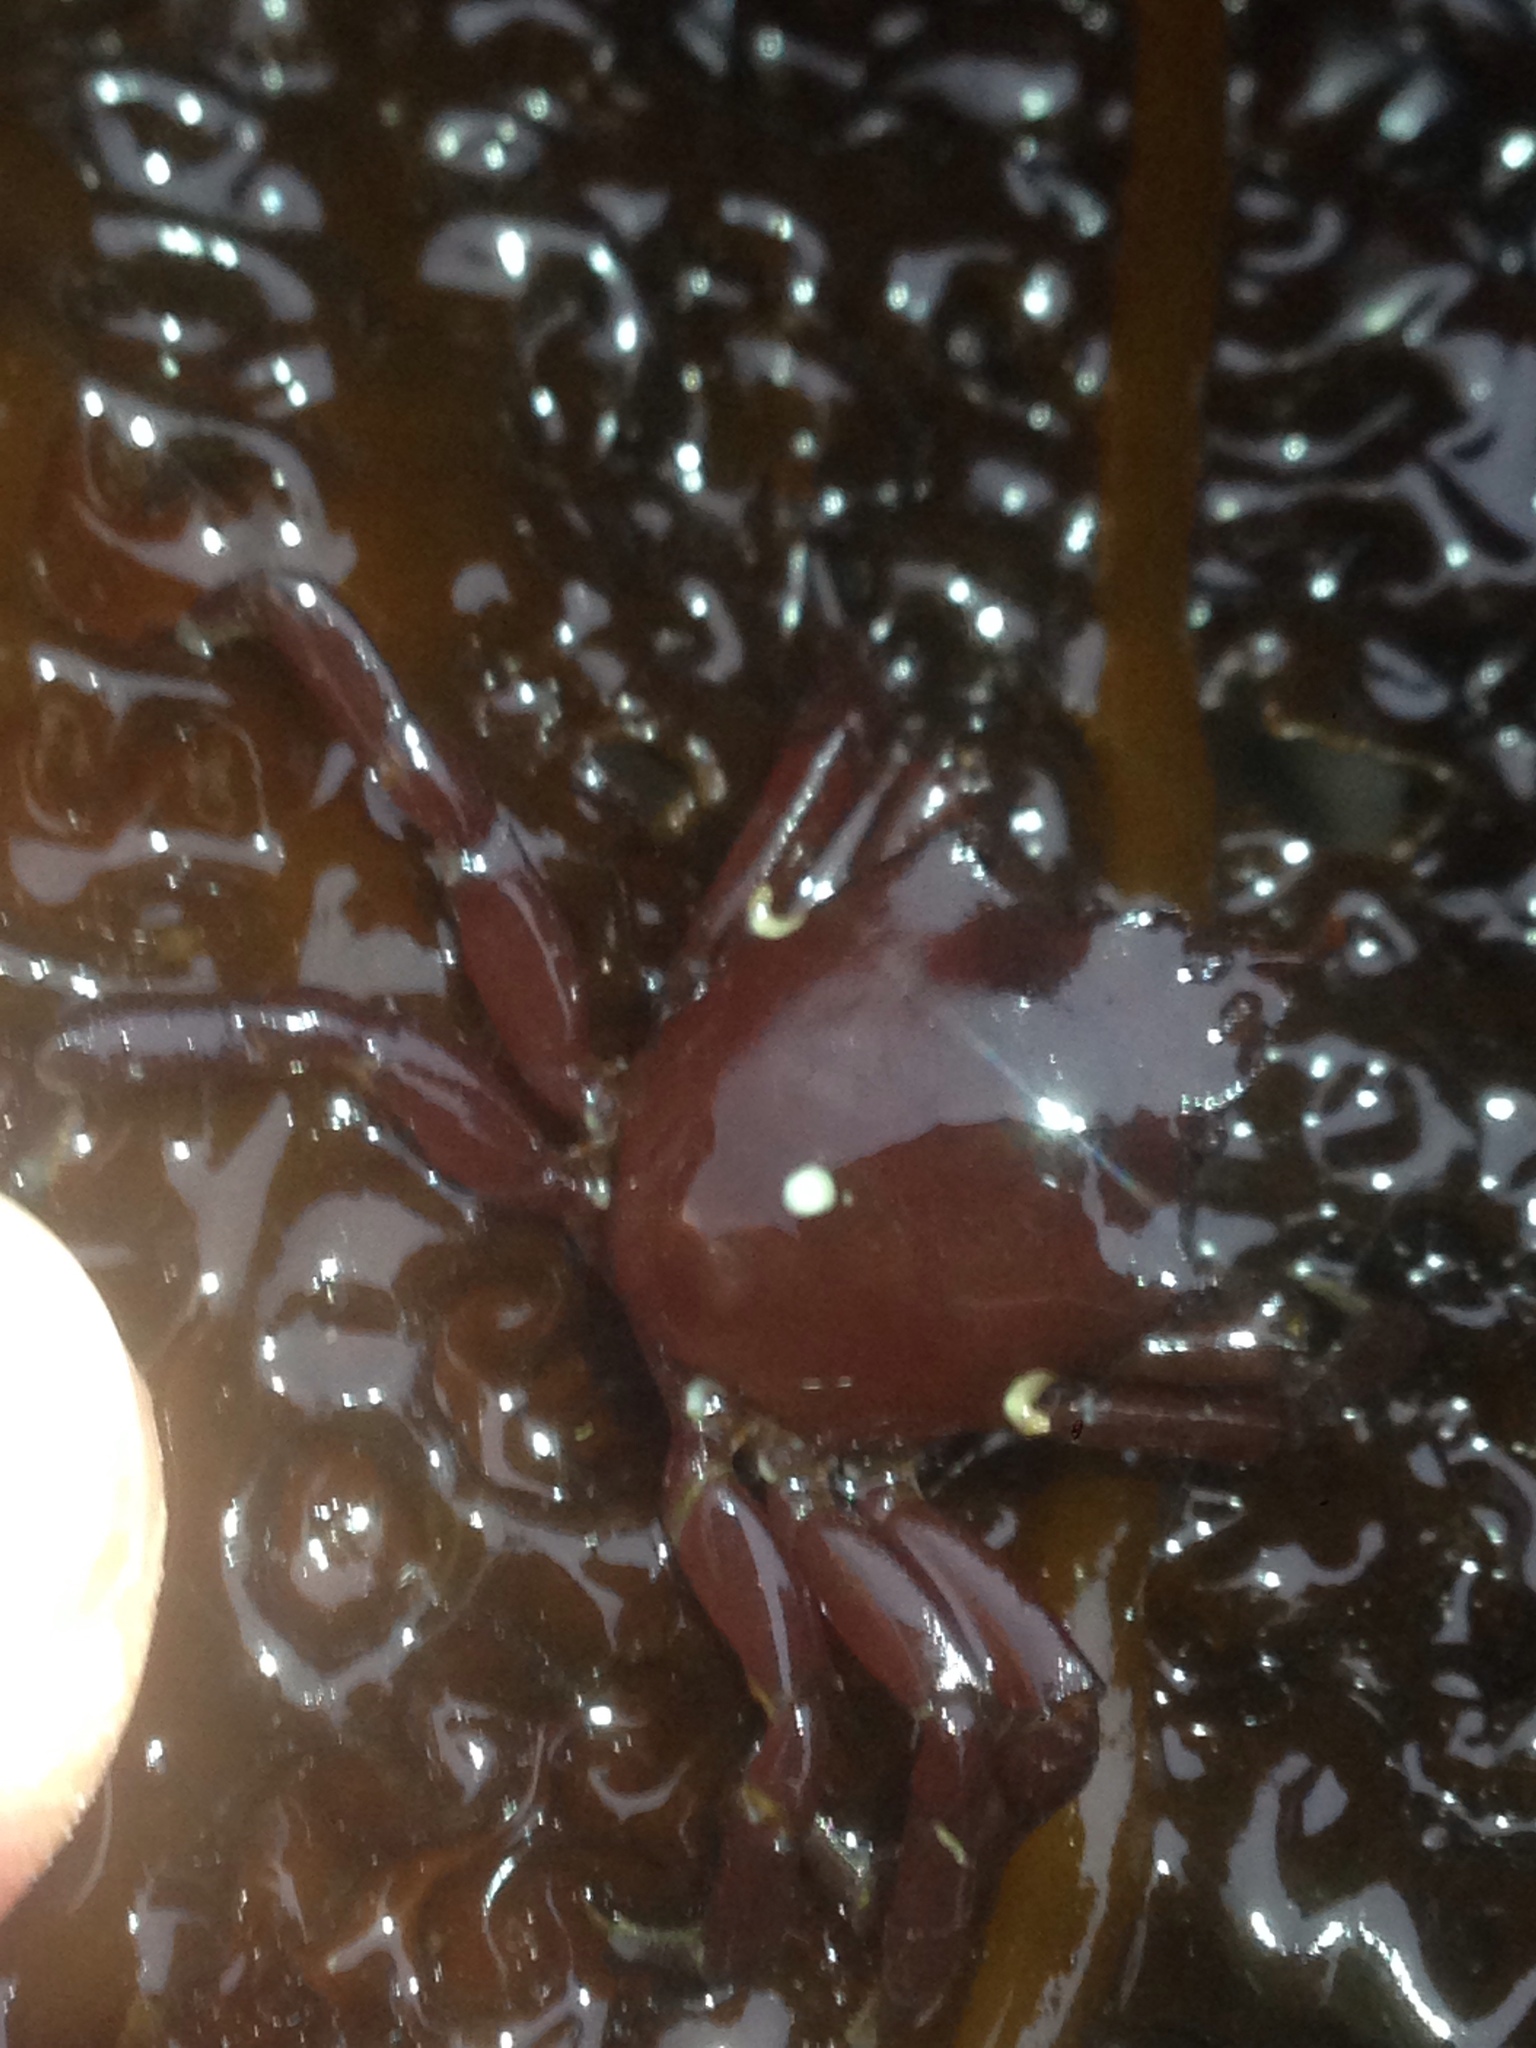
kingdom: Animalia
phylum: Arthropoda
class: Malacostraca
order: Decapoda
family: Epialtidae
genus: Pugettia
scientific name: Pugettia producta
